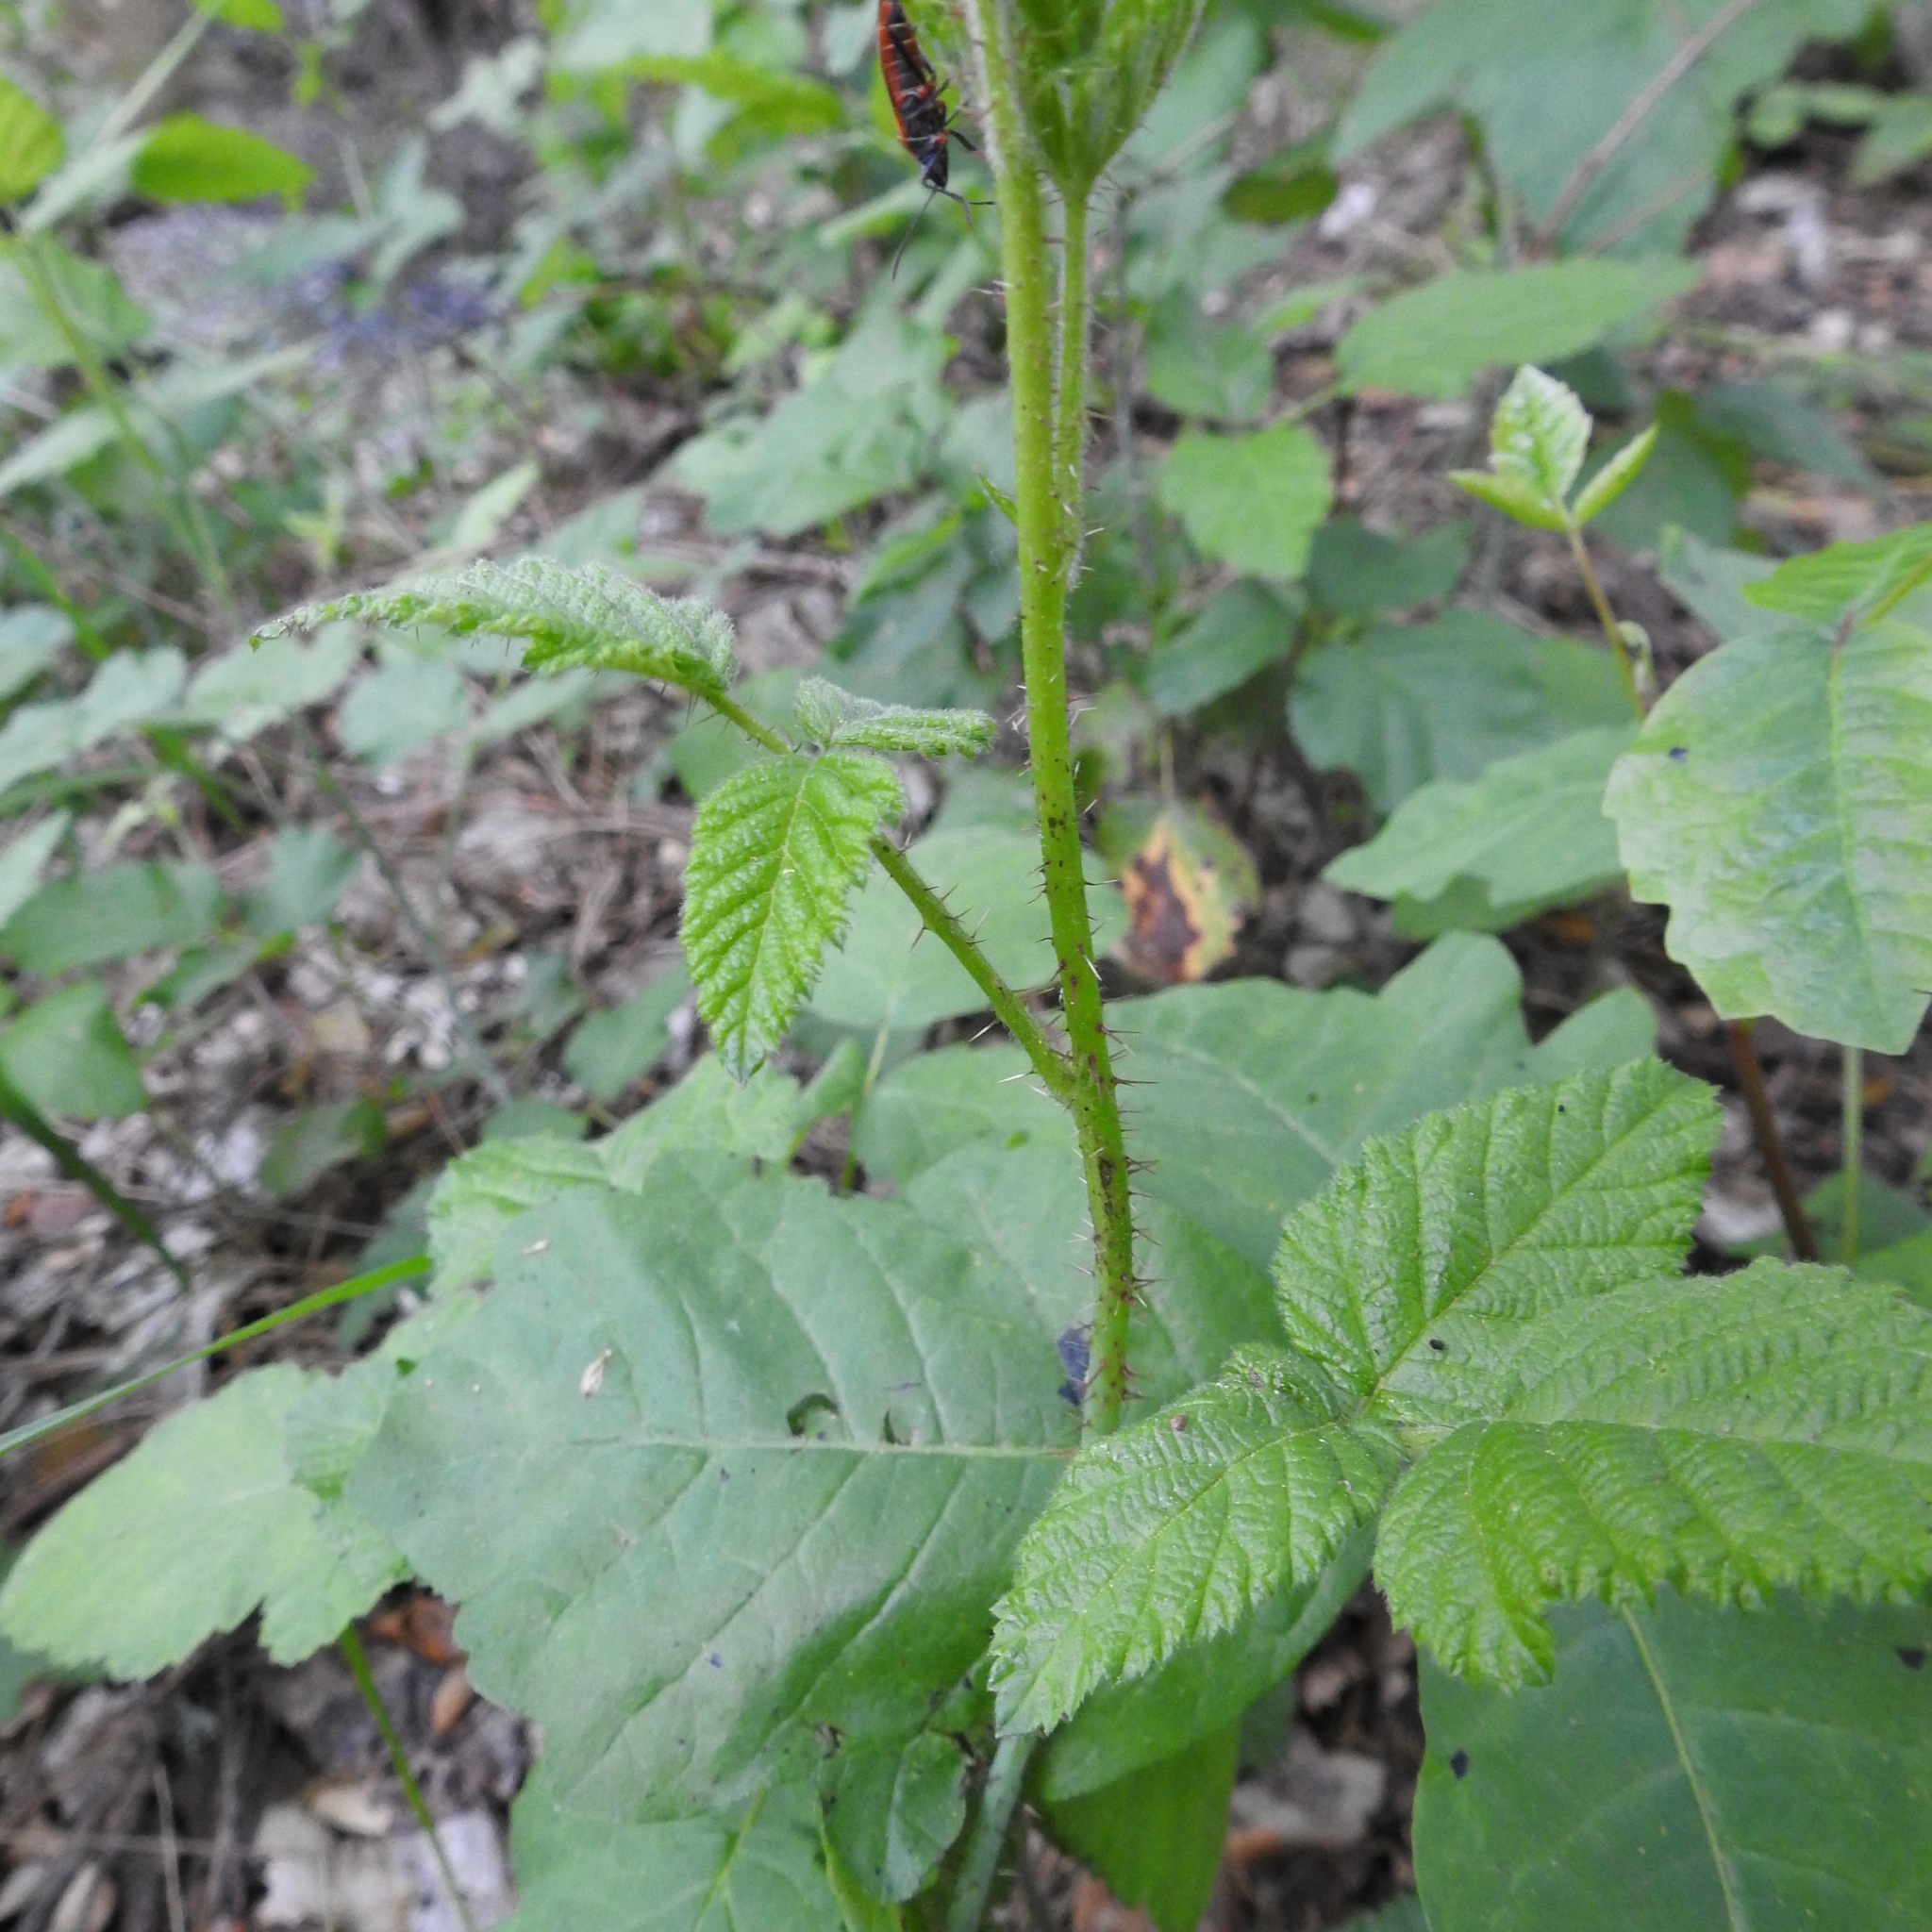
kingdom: Plantae
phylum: Tracheophyta
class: Magnoliopsida
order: Rosales
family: Rosaceae
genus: Rubus
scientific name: Rubus ursinus
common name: Pacific blackberry
